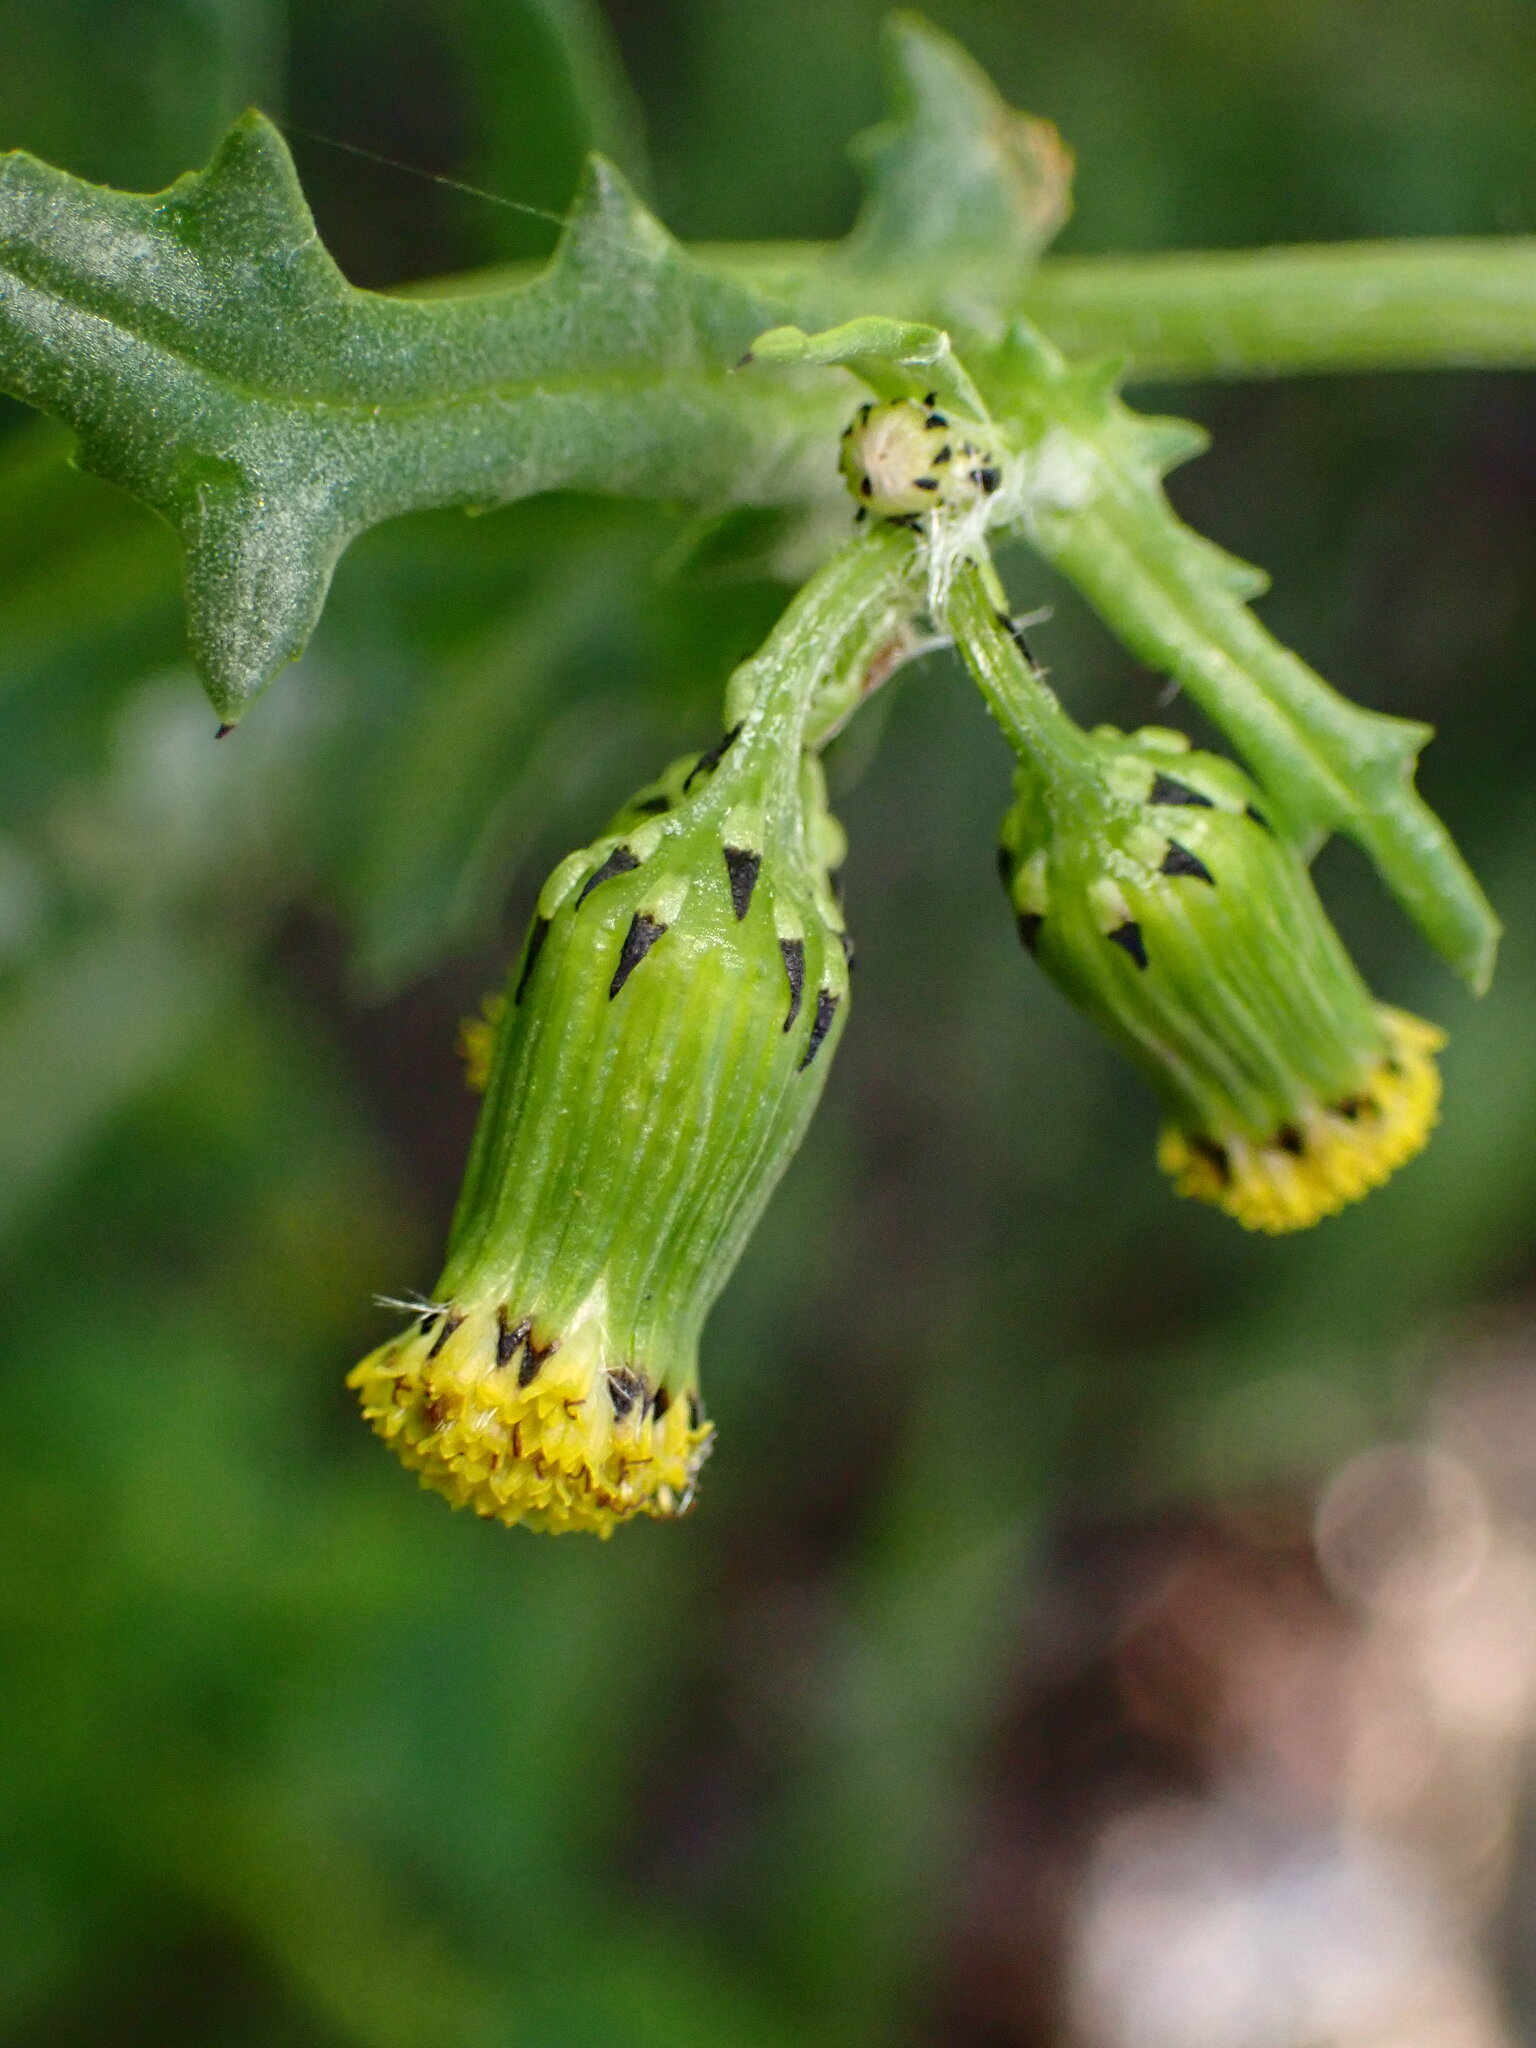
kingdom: Plantae
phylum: Tracheophyta
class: Magnoliopsida
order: Asterales
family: Asteraceae
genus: Senecio
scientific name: Senecio vulgaris
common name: Old-man-in-the-spring
